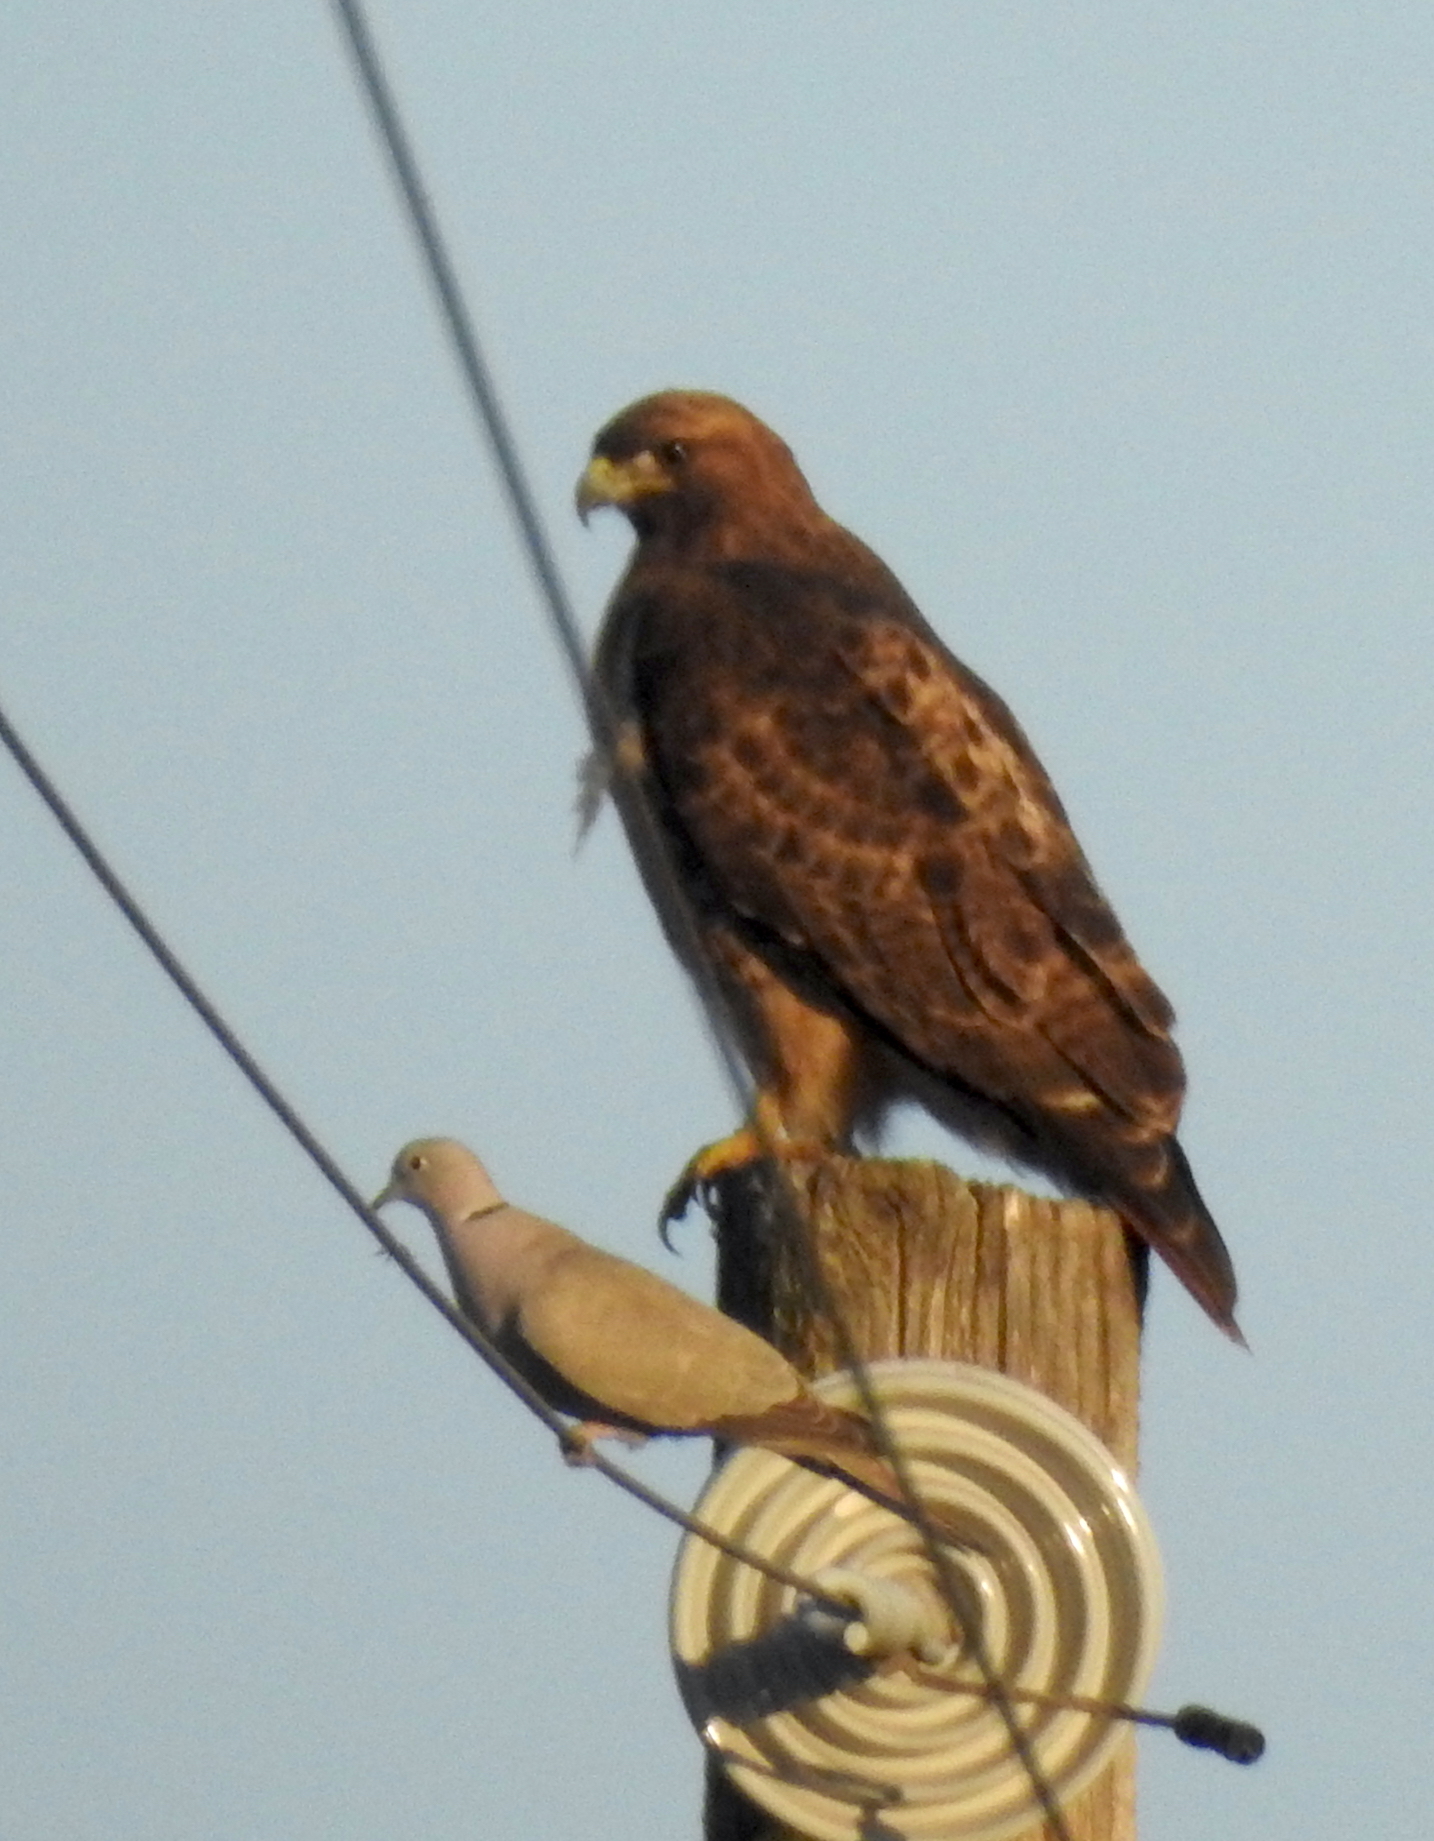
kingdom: Animalia
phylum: Chordata
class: Aves
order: Columbiformes
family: Columbidae
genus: Streptopelia
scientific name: Streptopelia decaocto
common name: Eurasian collared dove
